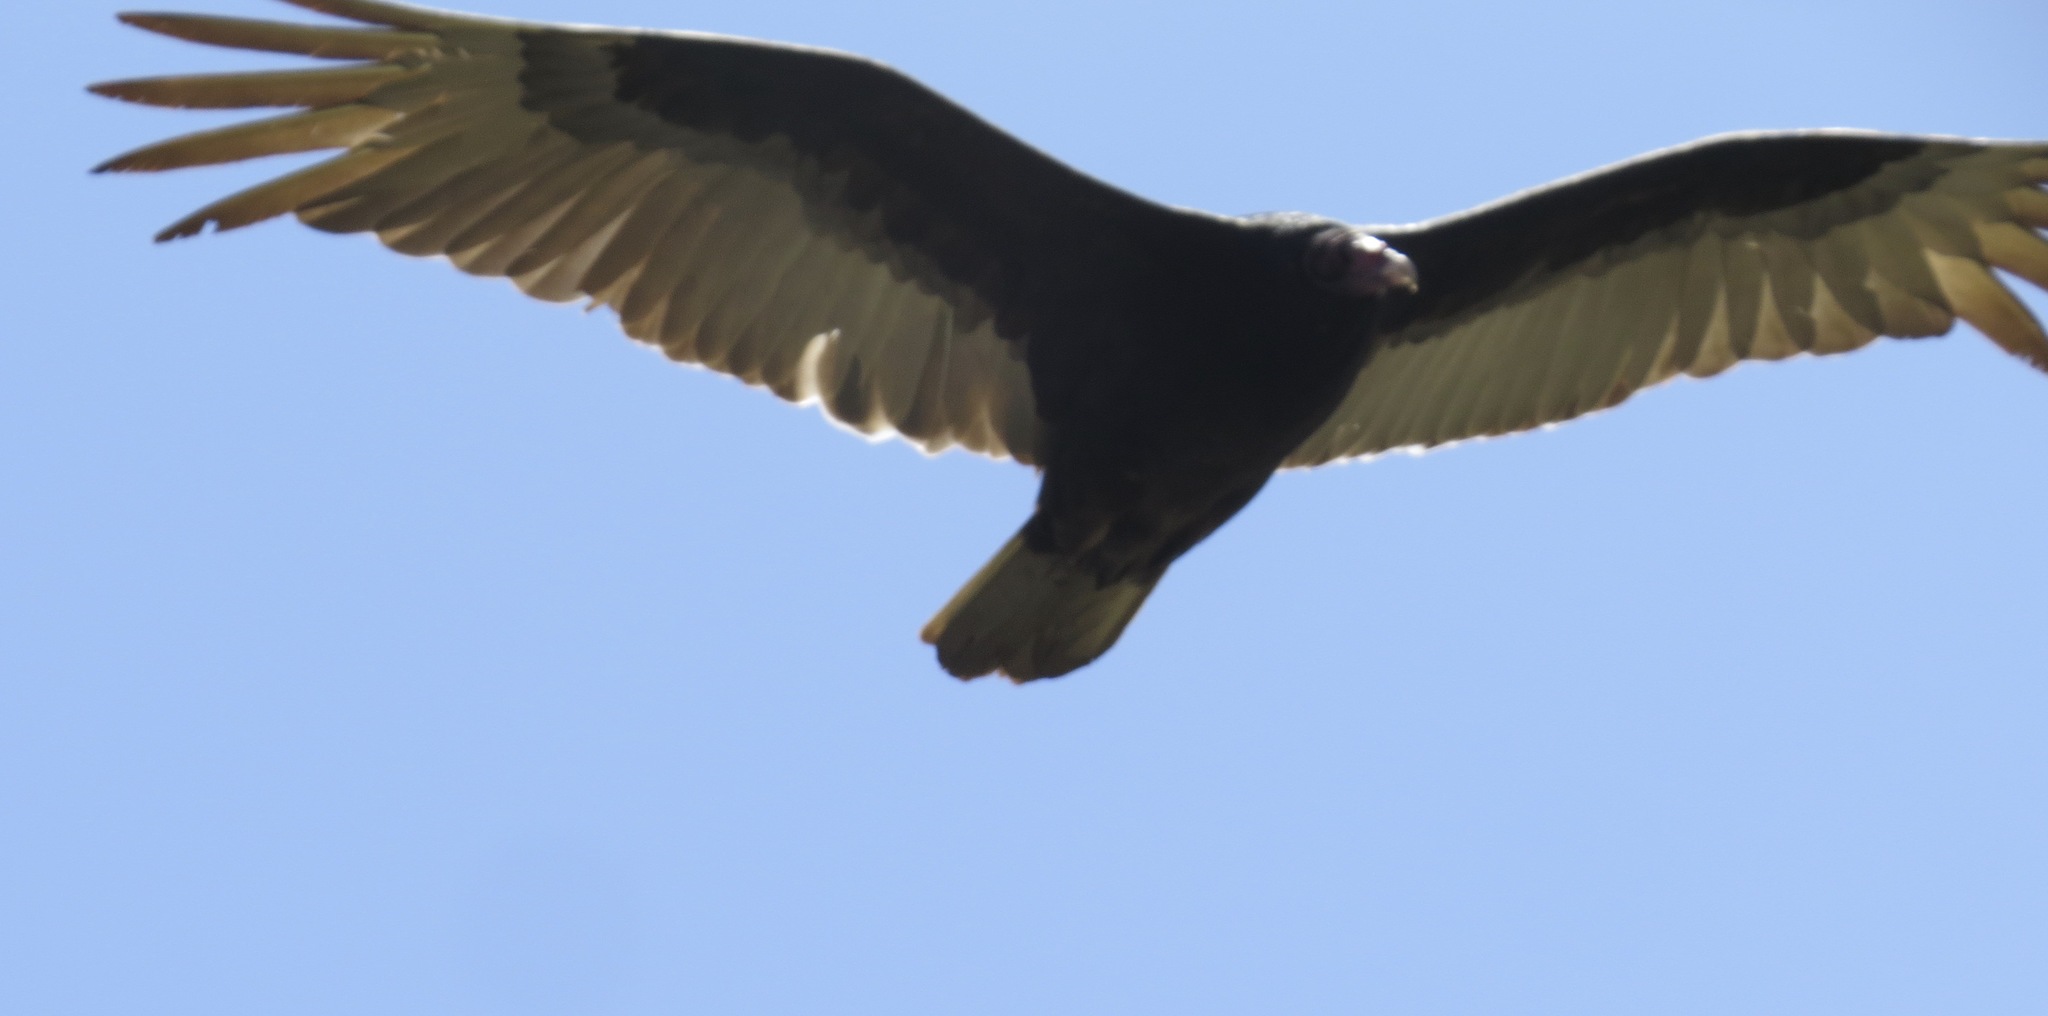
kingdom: Animalia
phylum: Chordata
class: Aves
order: Accipitriformes
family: Cathartidae
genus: Cathartes
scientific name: Cathartes aura
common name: Turkey vulture
